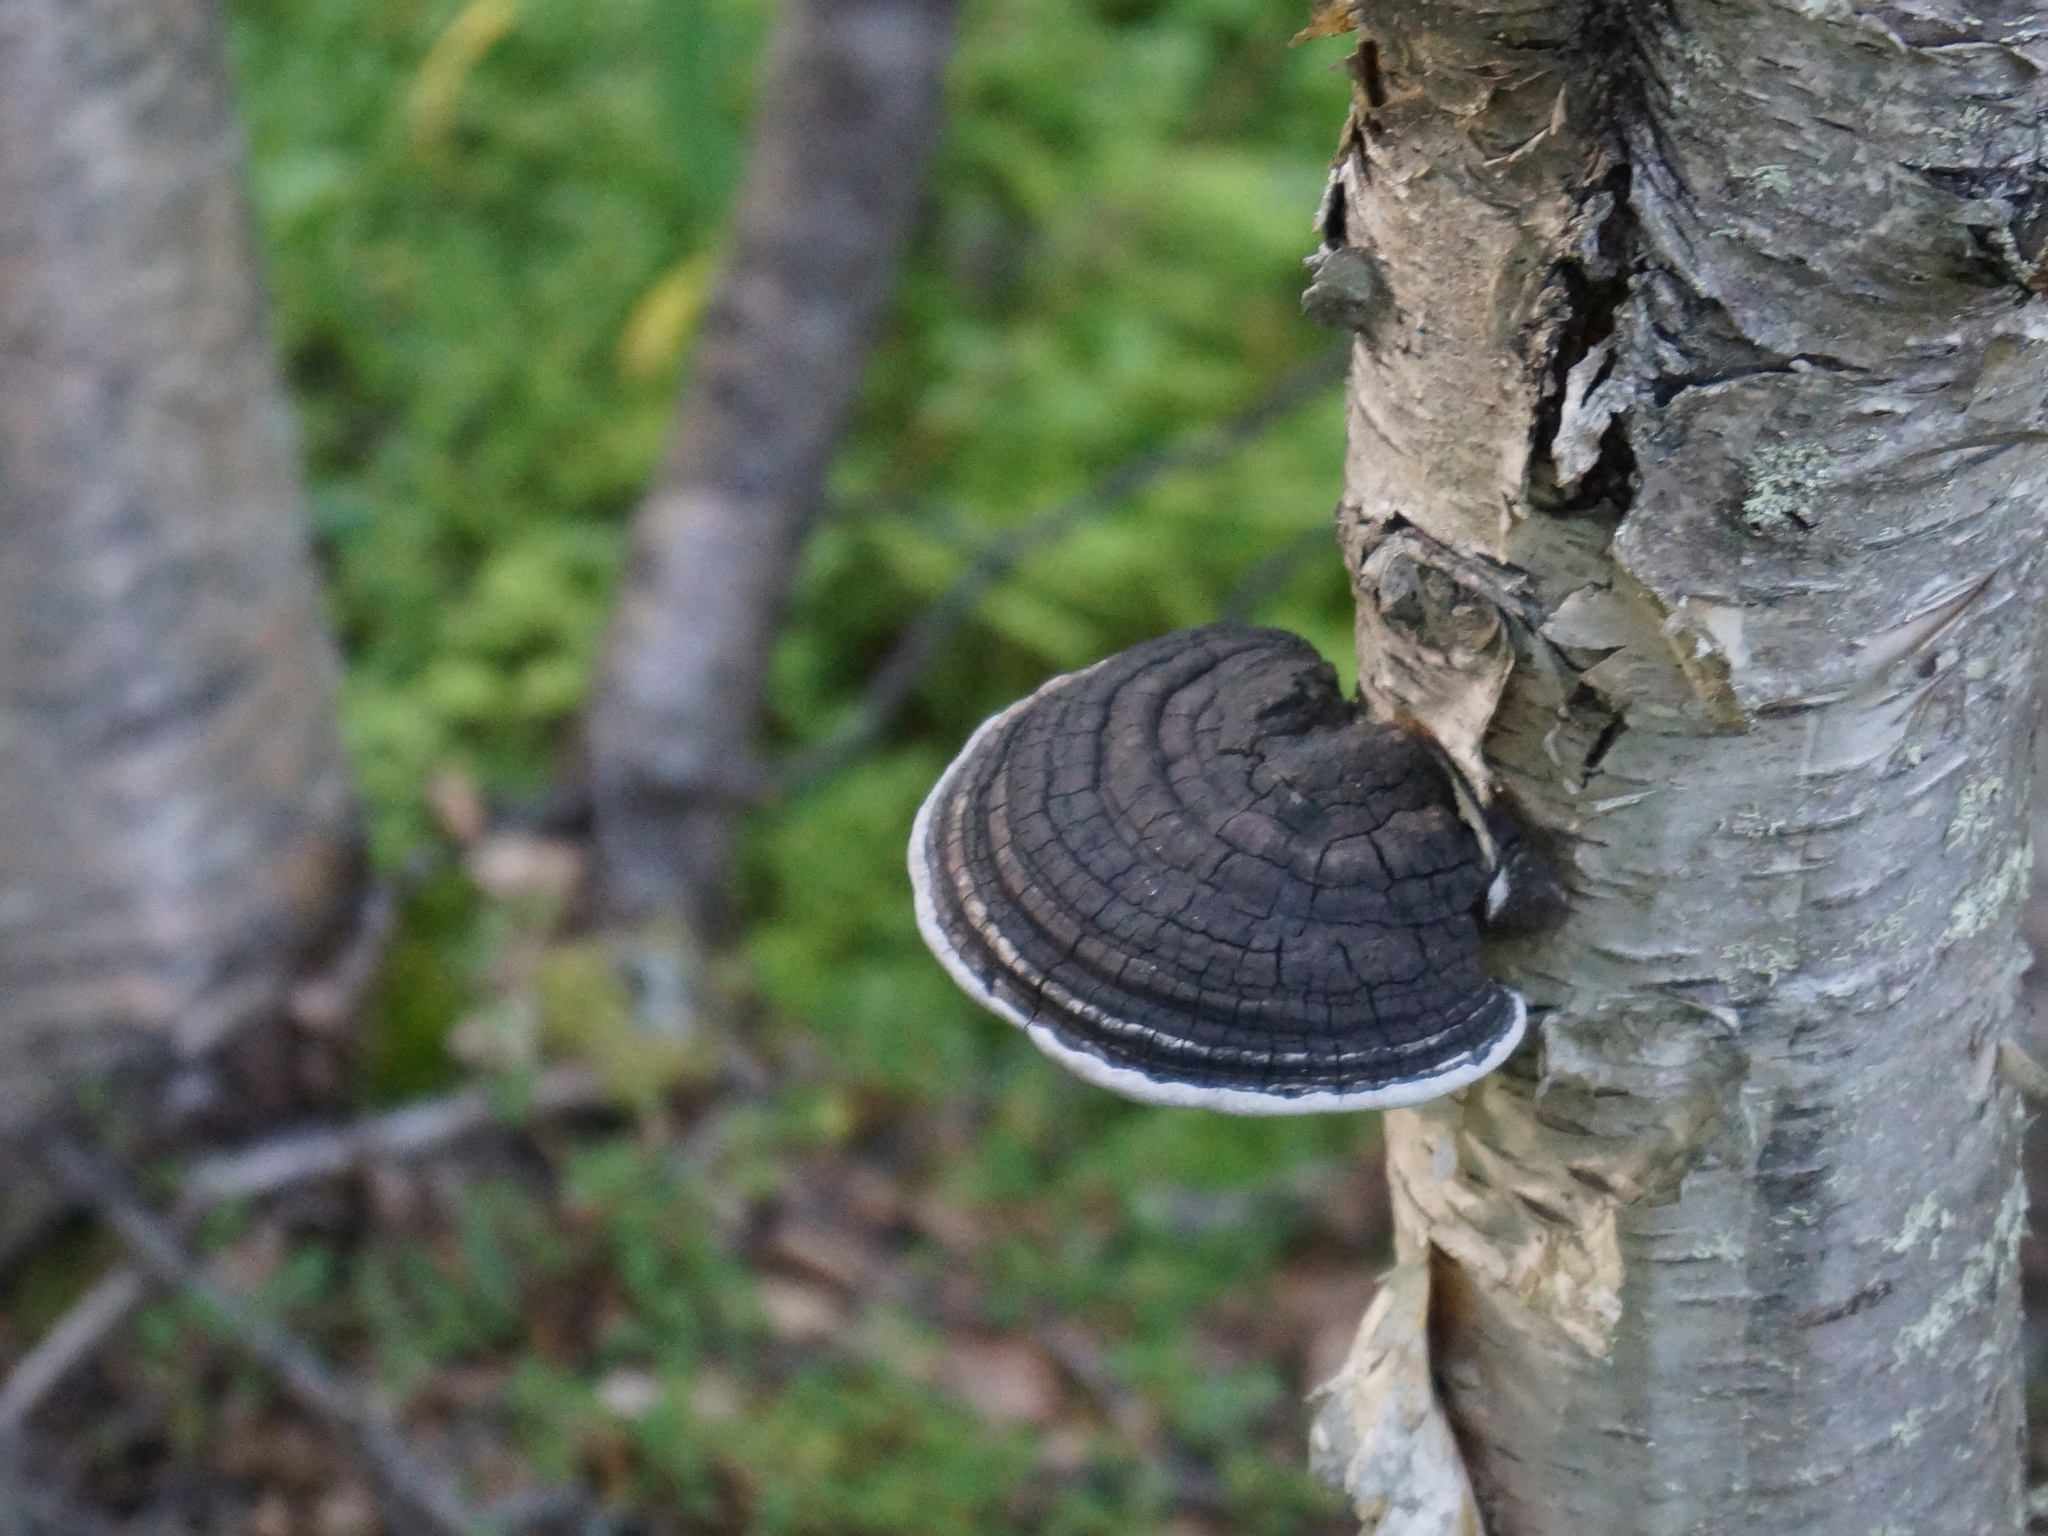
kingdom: Fungi
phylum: Basidiomycota
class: Agaricomycetes
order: Hymenochaetales
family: Hymenochaetaceae
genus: Phellinus
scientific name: Phellinus igniarius
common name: Willow bracket
